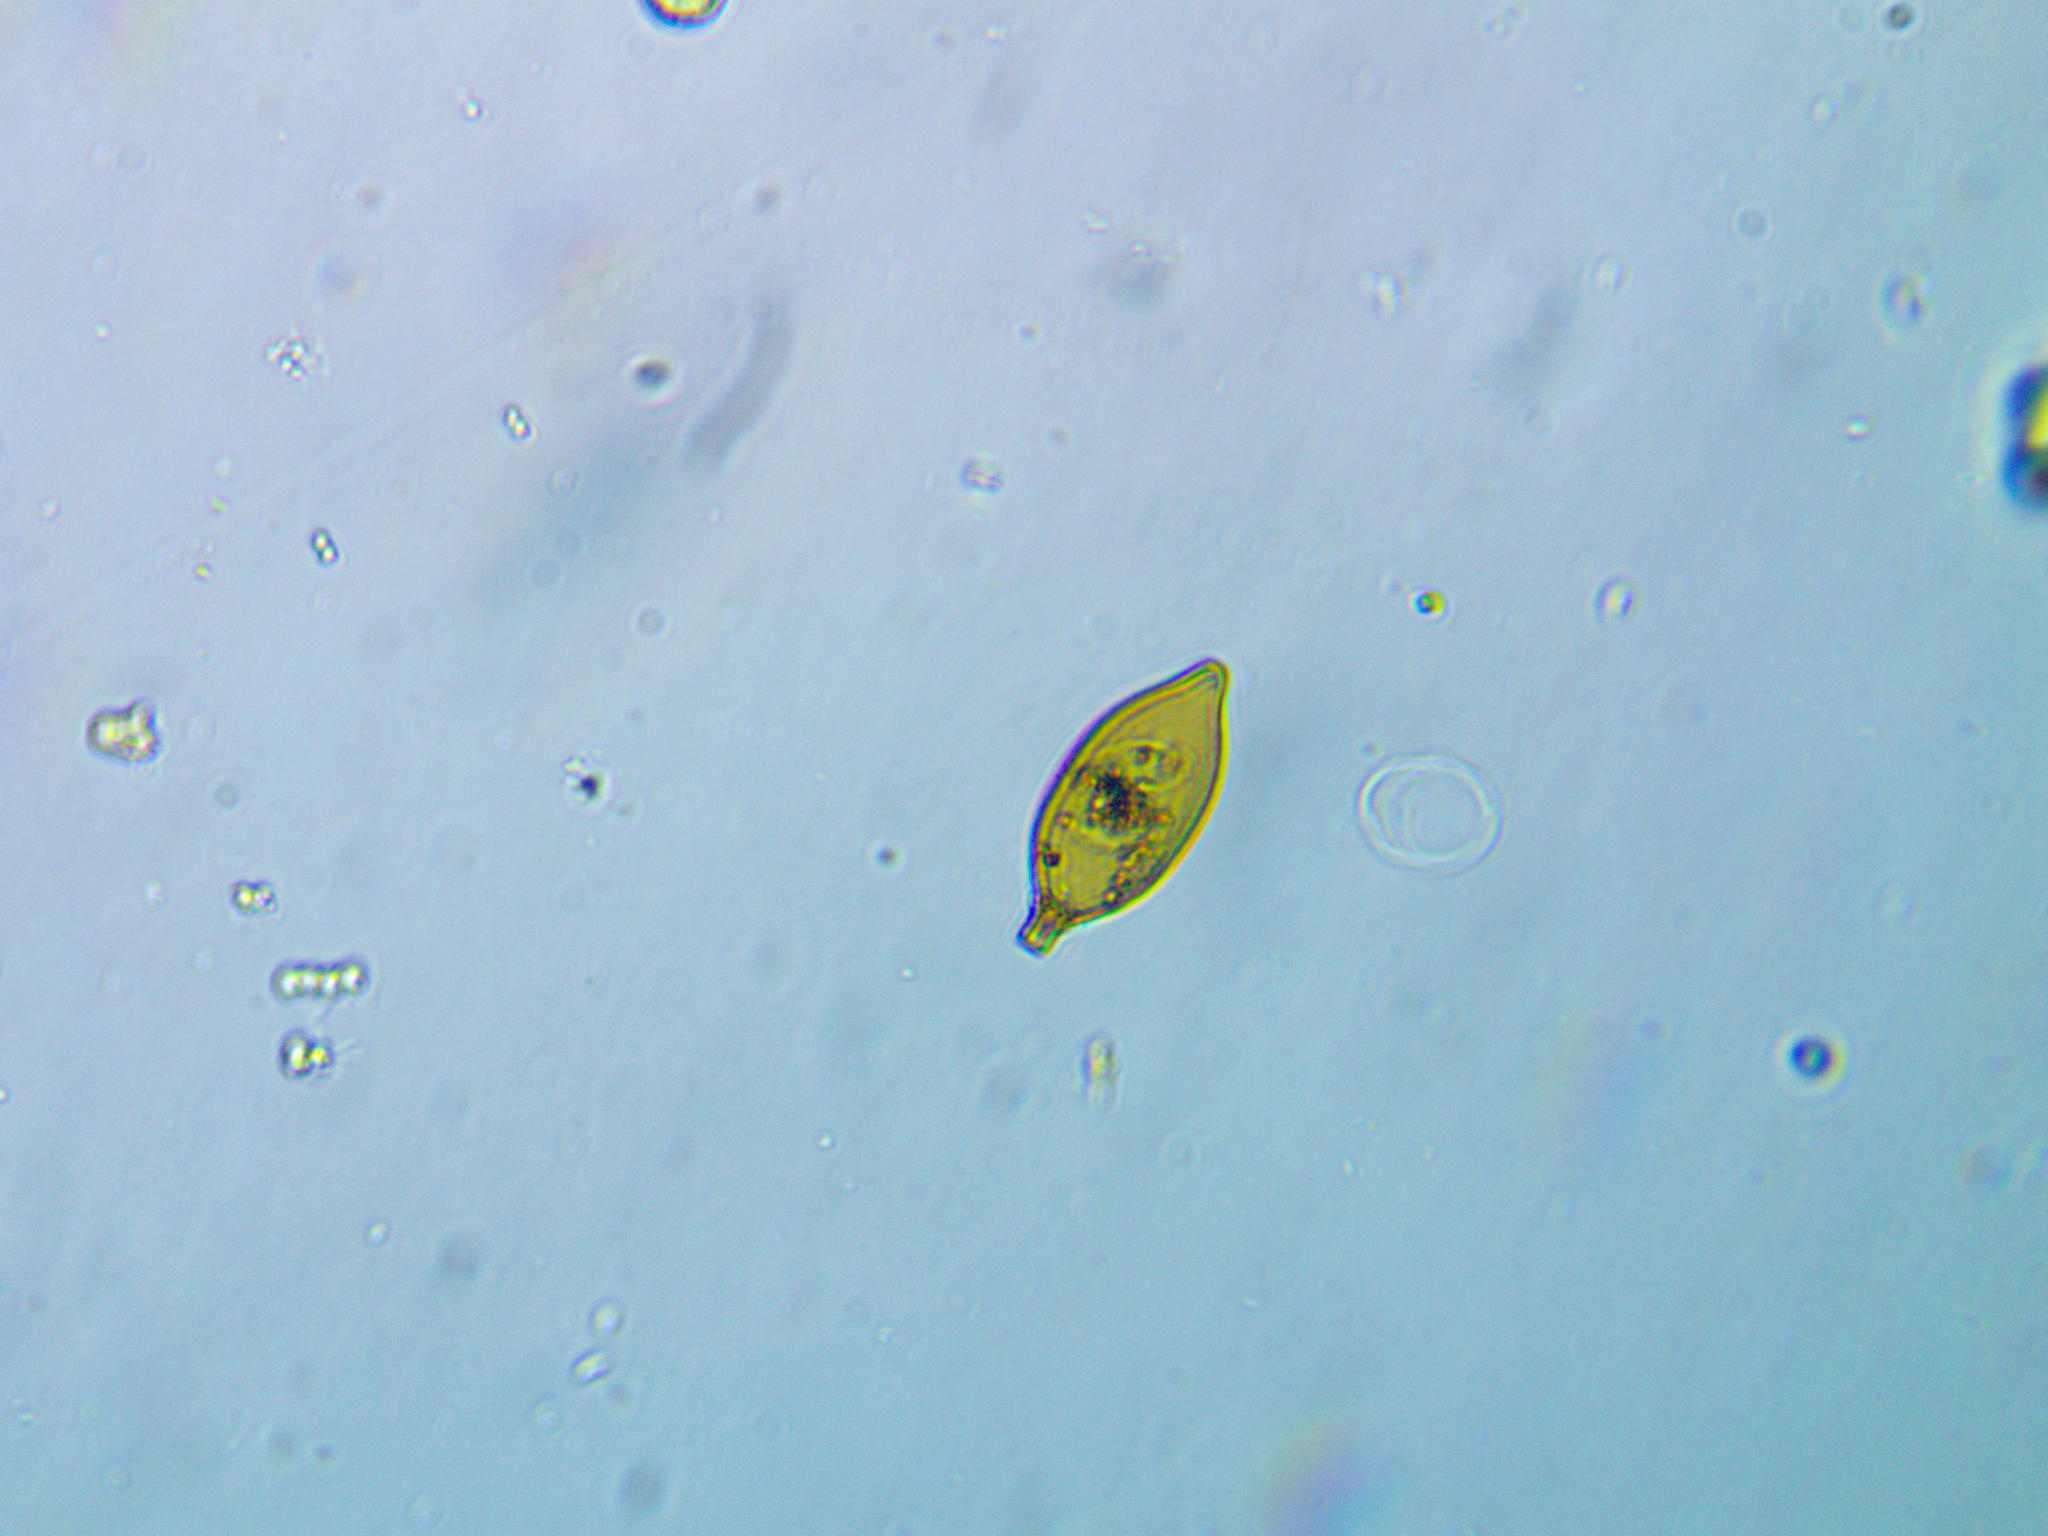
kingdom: Protozoa
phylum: Euglenozoa
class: Euglenoidea
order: Euglenida
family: Euglenaceae
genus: Trachelomonas
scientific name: Trachelomonas hexangulata
